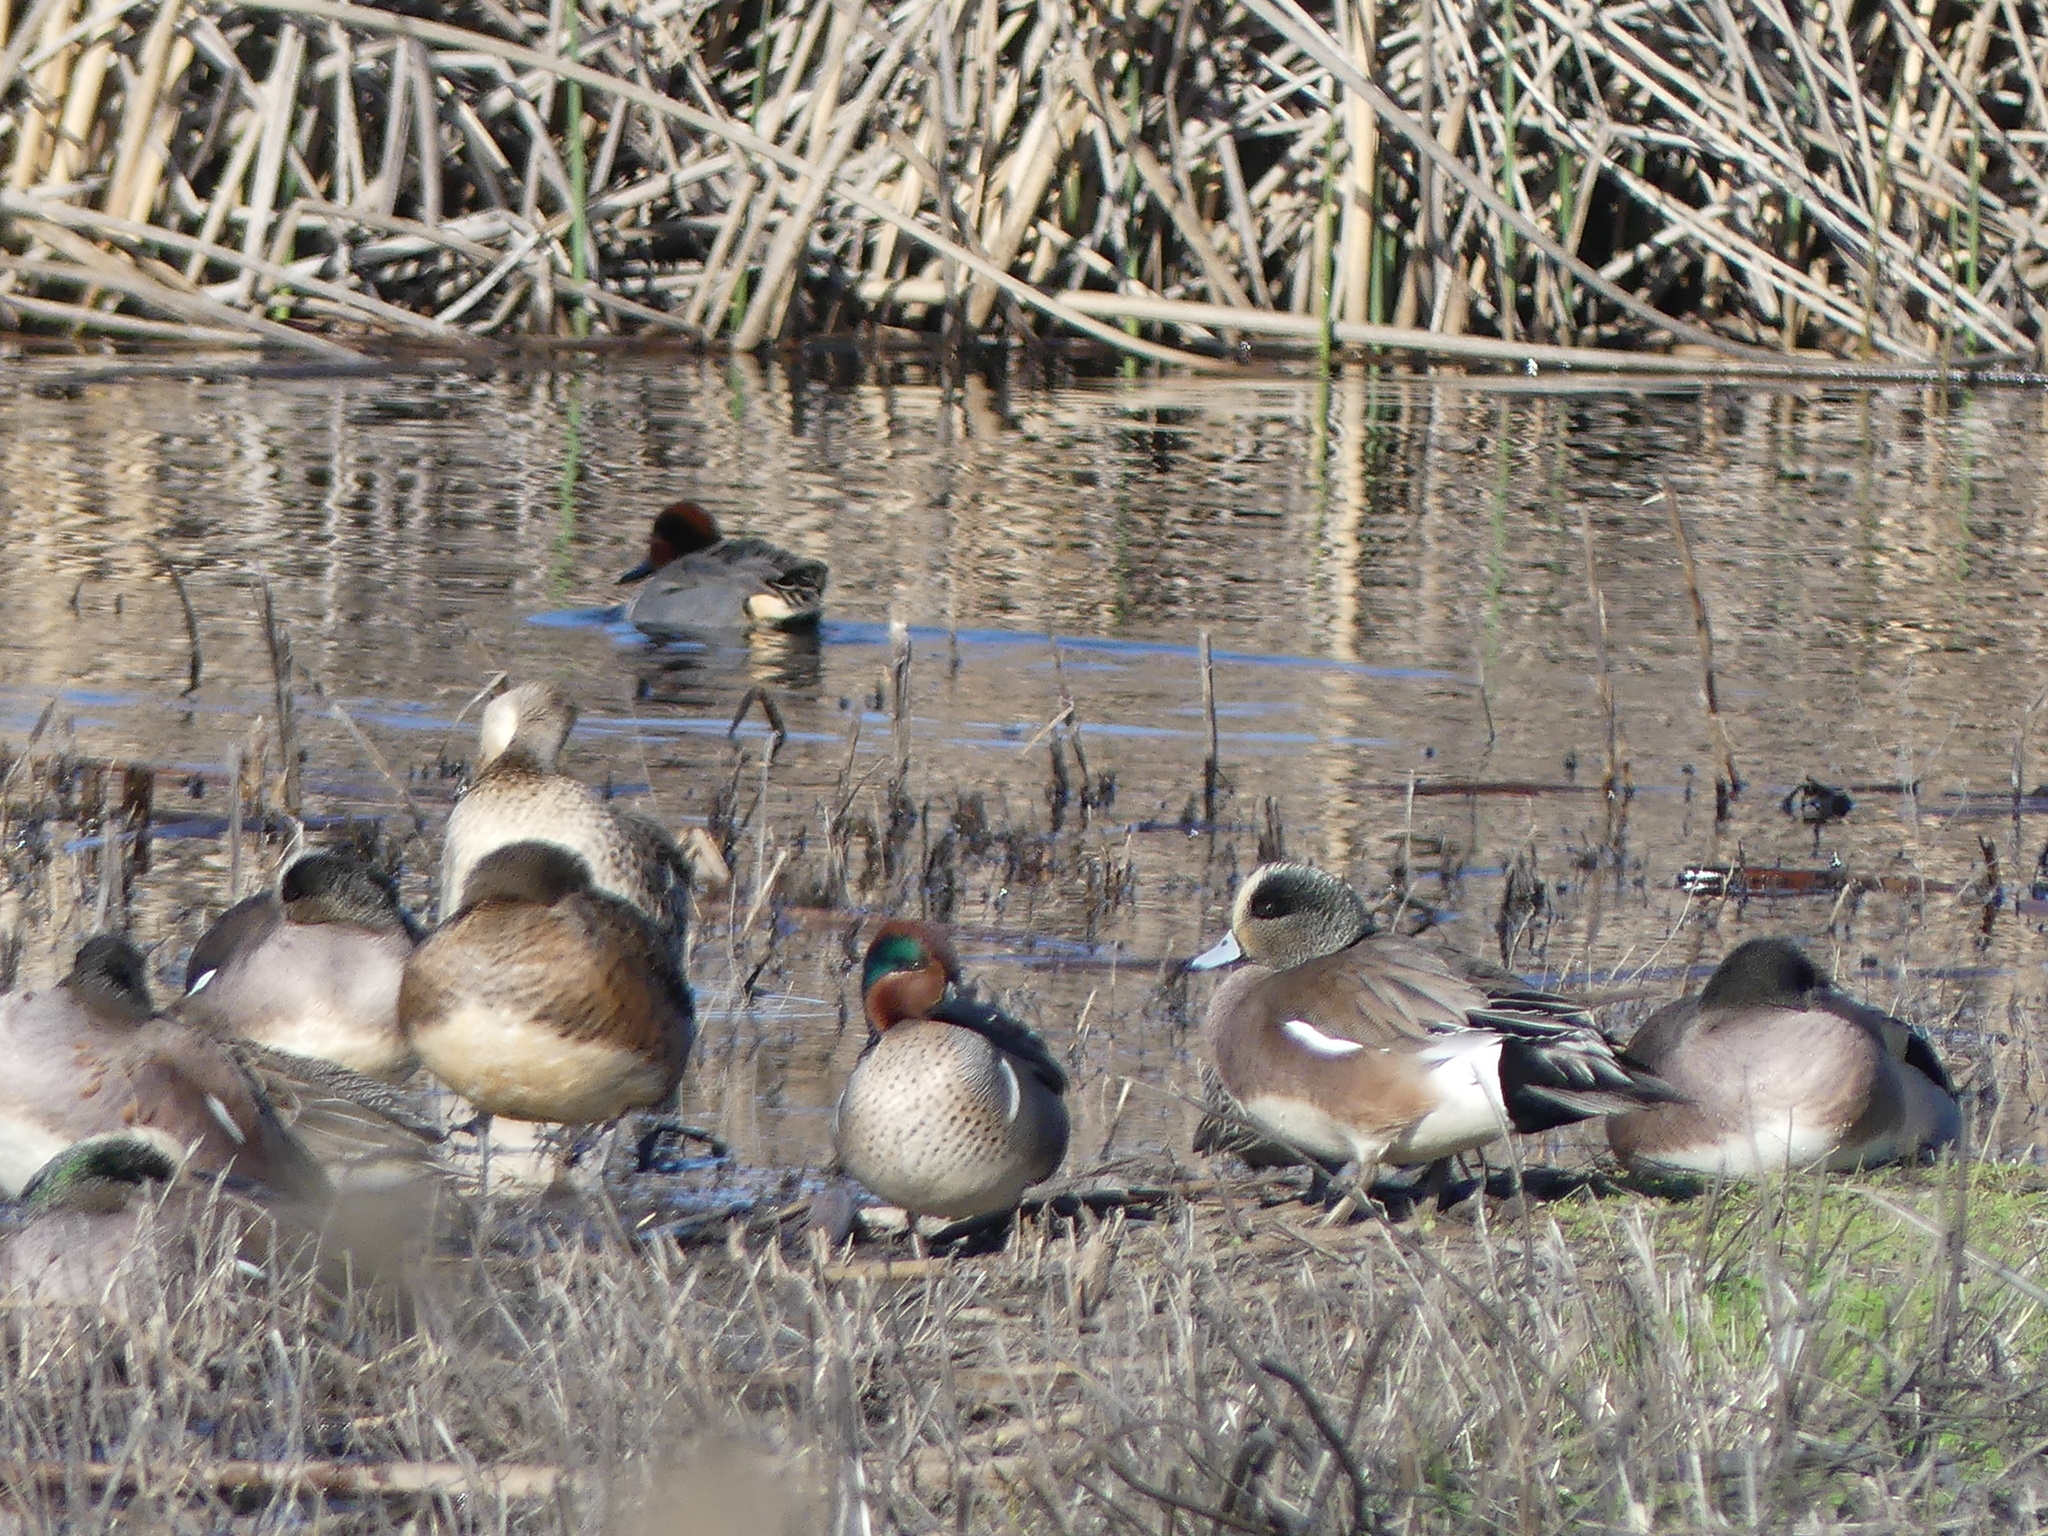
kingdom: Animalia
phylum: Chordata
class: Aves
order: Anseriformes
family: Anatidae
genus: Anas
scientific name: Anas crecca
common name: Eurasian teal
